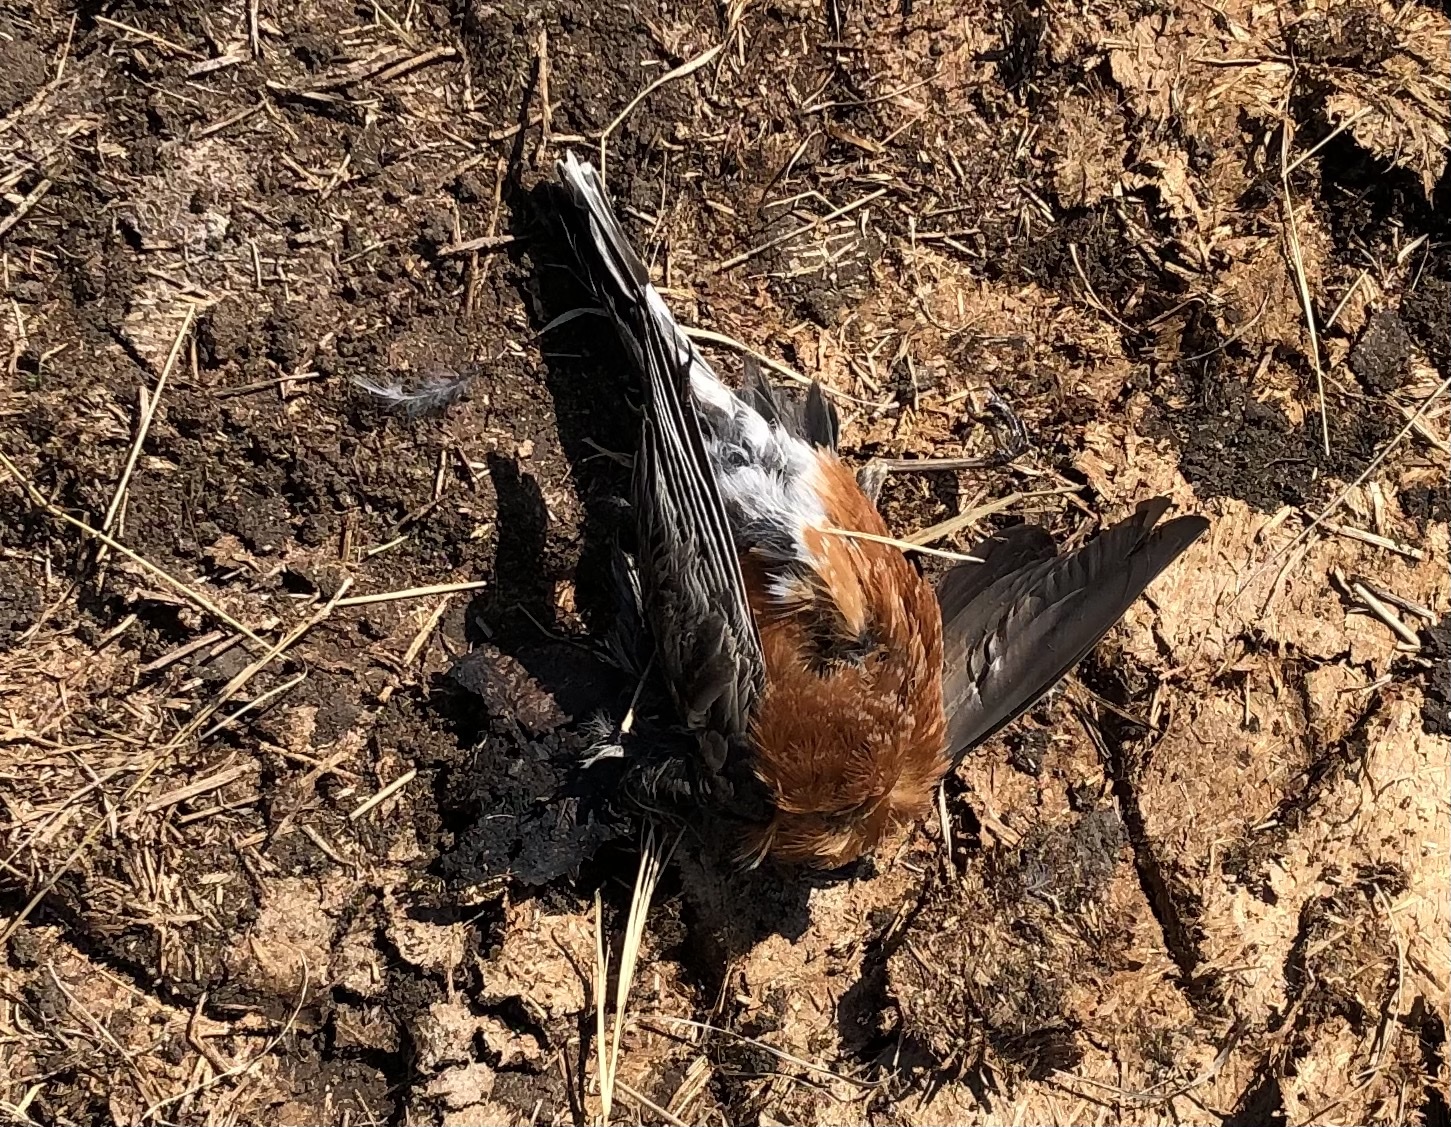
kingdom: Animalia
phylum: Chordata
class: Aves
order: Passeriformes
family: Turdidae
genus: Turdus
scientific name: Turdus migratorius
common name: American robin
